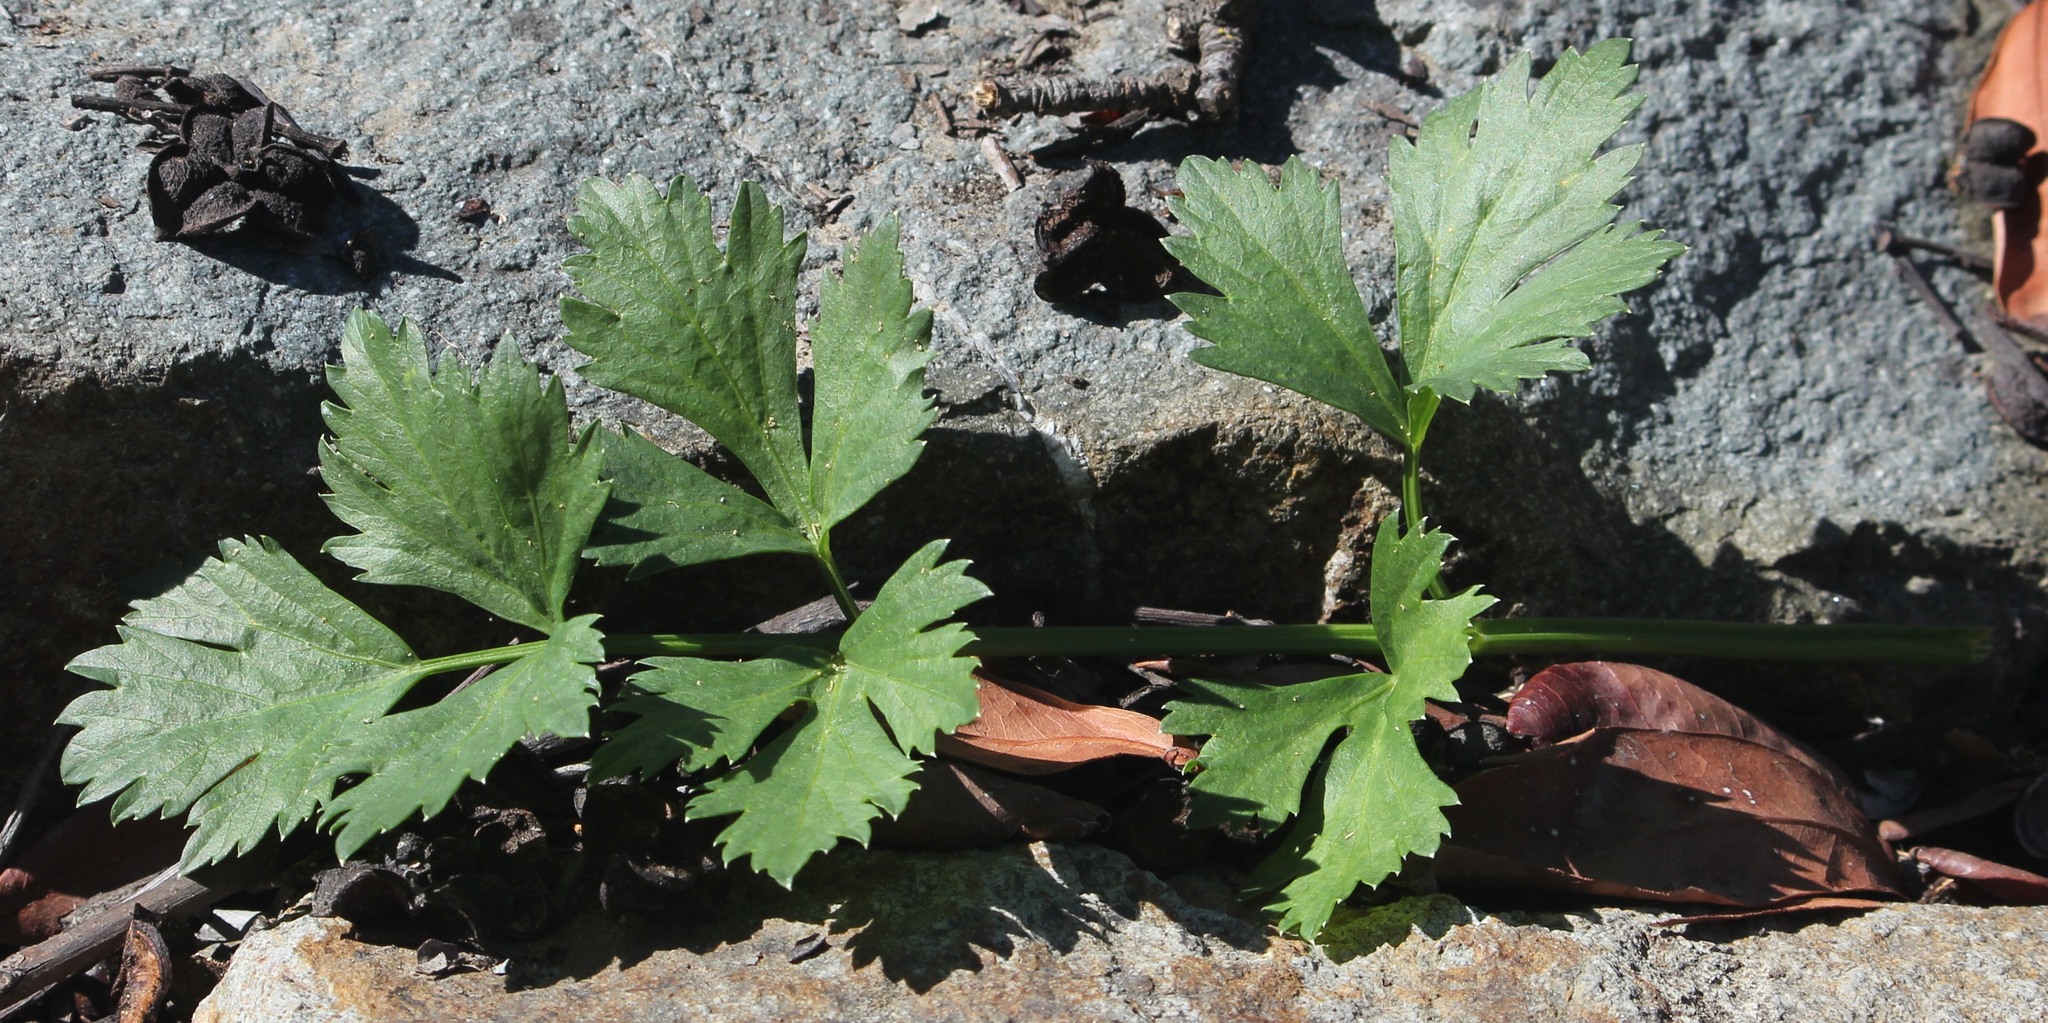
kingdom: Plantae
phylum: Tracheophyta
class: Magnoliopsida
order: Apiales
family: Apiaceae
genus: Apium
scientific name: Apium graveolens
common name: Wild celery
